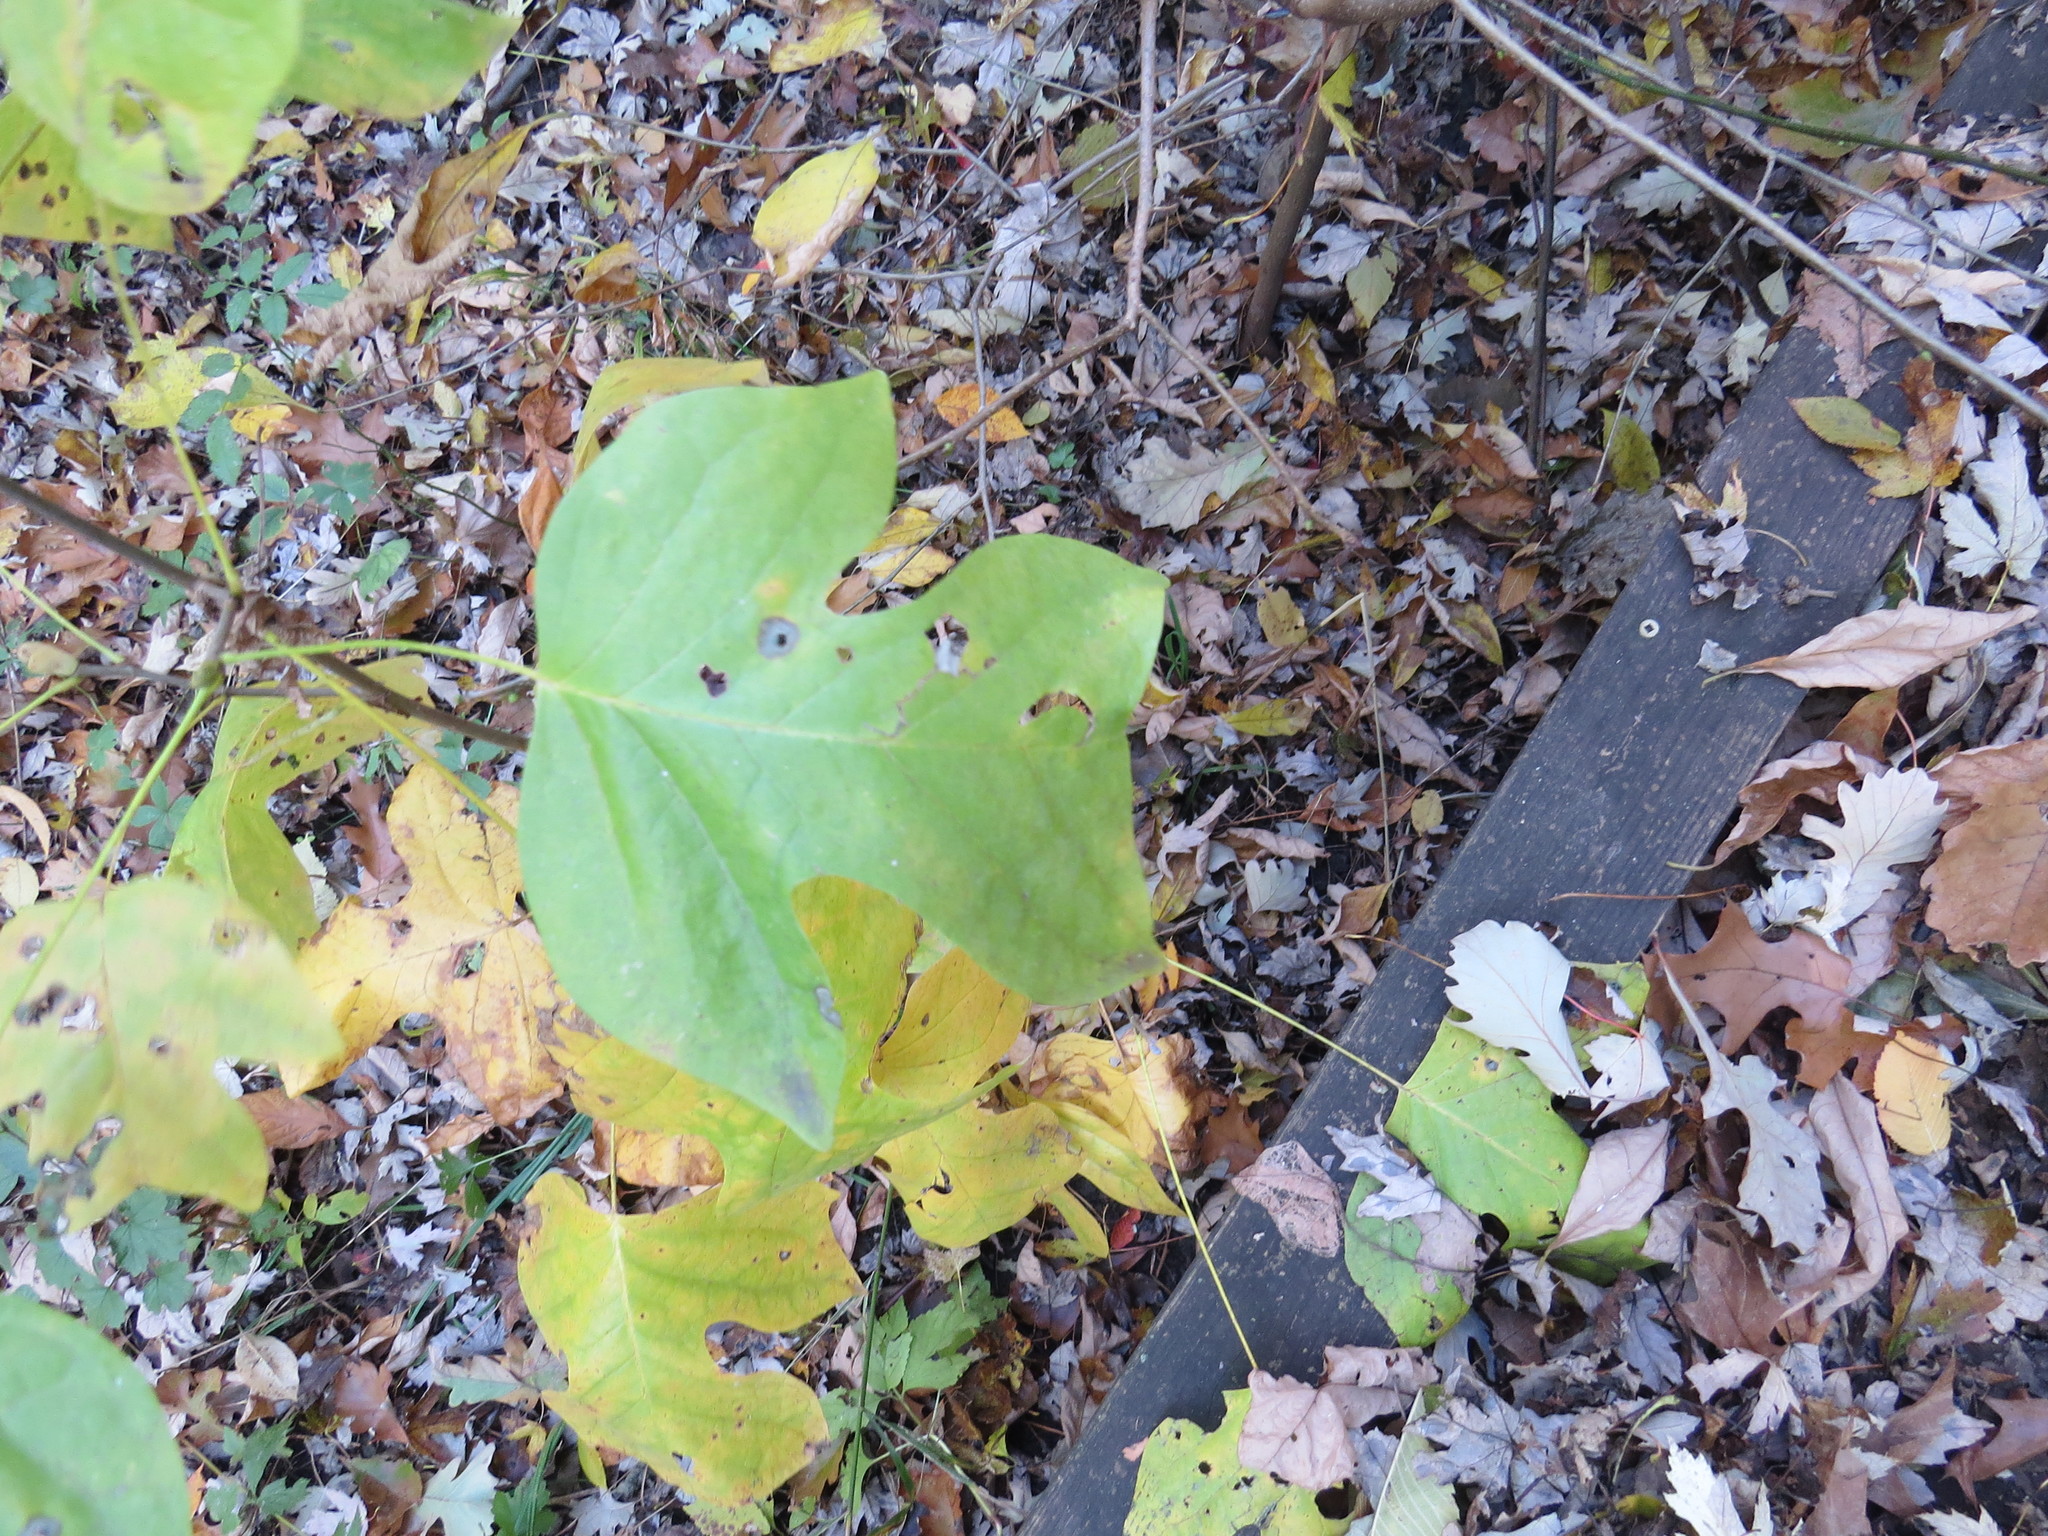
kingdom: Plantae
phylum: Tracheophyta
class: Magnoliopsida
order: Magnoliales
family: Magnoliaceae
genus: Liriodendron
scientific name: Liriodendron tulipifera
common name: Tulip tree
